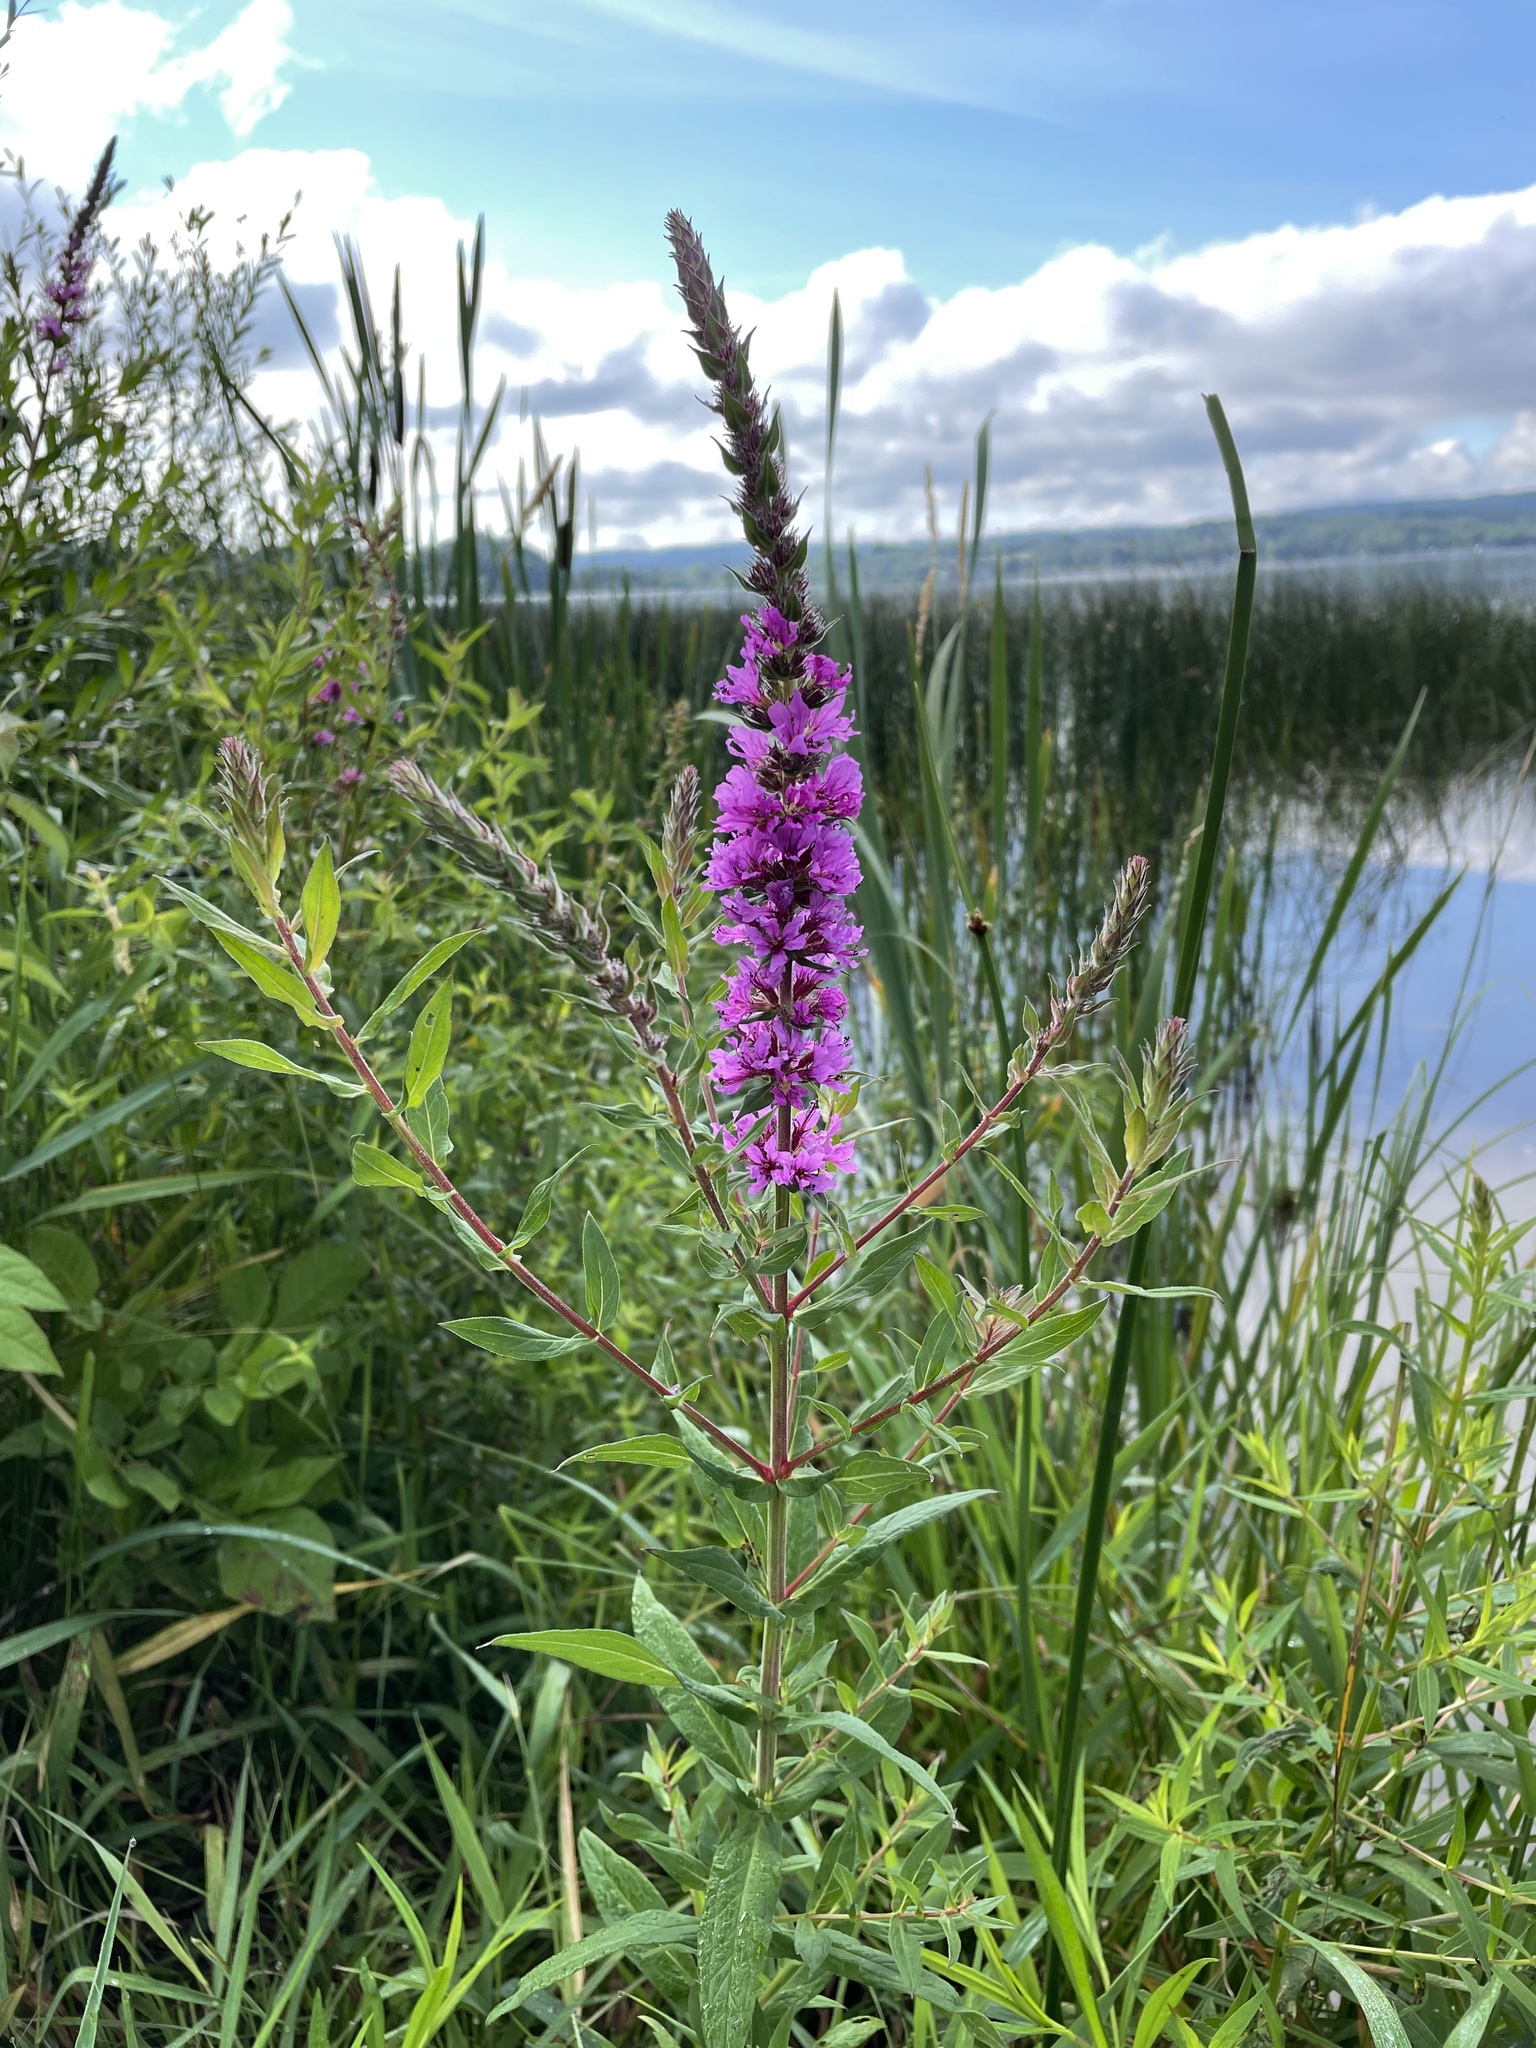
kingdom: Plantae
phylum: Tracheophyta
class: Magnoliopsida
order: Myrtales
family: Lythraceae
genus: Lythrum
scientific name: Lythrum salicaria
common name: Purple loosestrife
